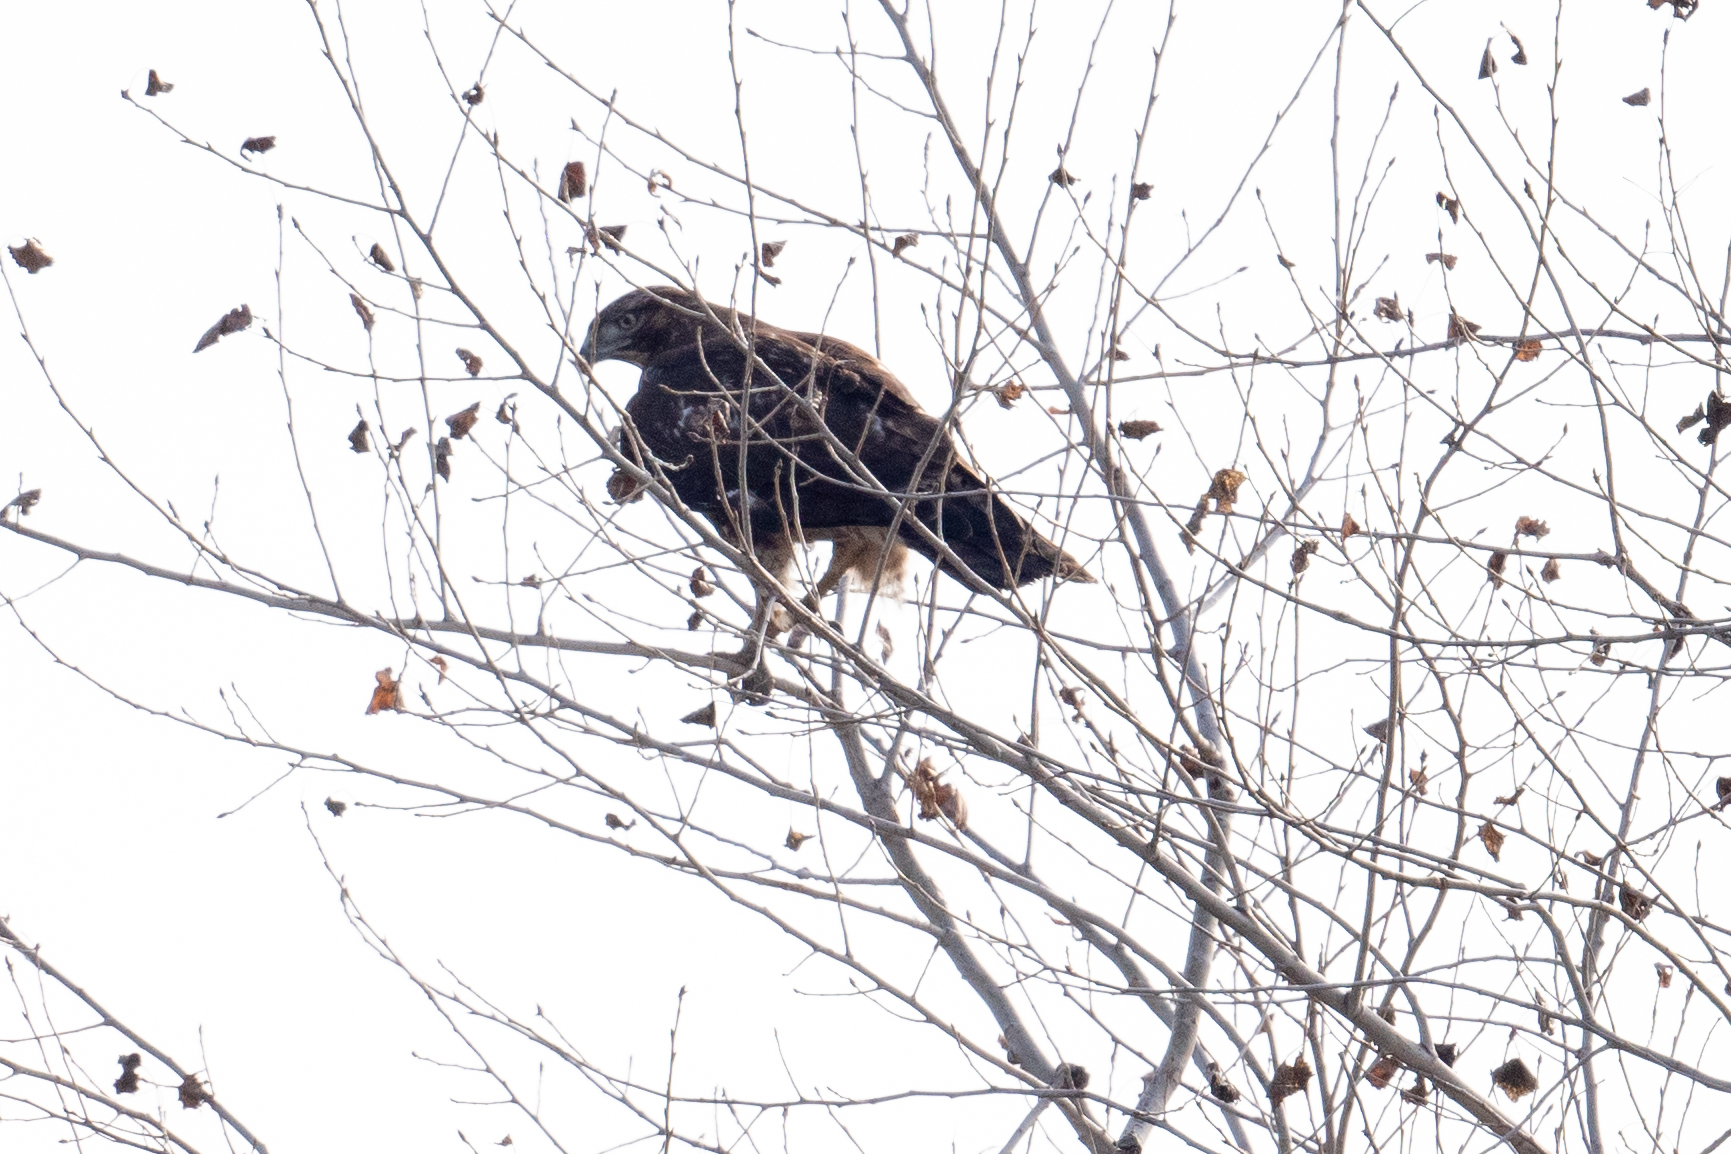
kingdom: Animalia
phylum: Chordata
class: Aves
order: Accipitriformes
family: Accipitridae
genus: Buteo
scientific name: Buteo jamaicensis
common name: Red-tailed hawk
